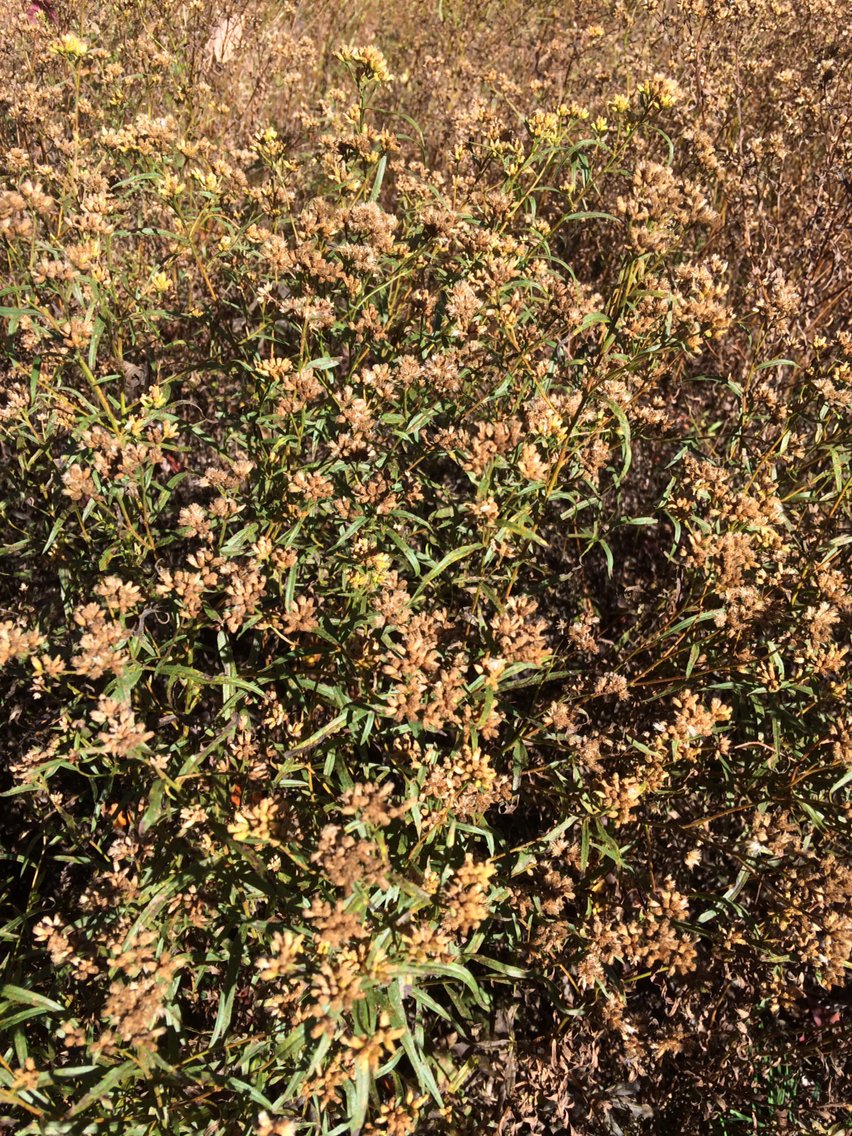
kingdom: Plantae
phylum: Tracheophyta
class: Magnoliopsida
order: Asterales
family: Asteraceae
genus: Euthamia
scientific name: Euthamia graminifolia
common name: Common goldentop
